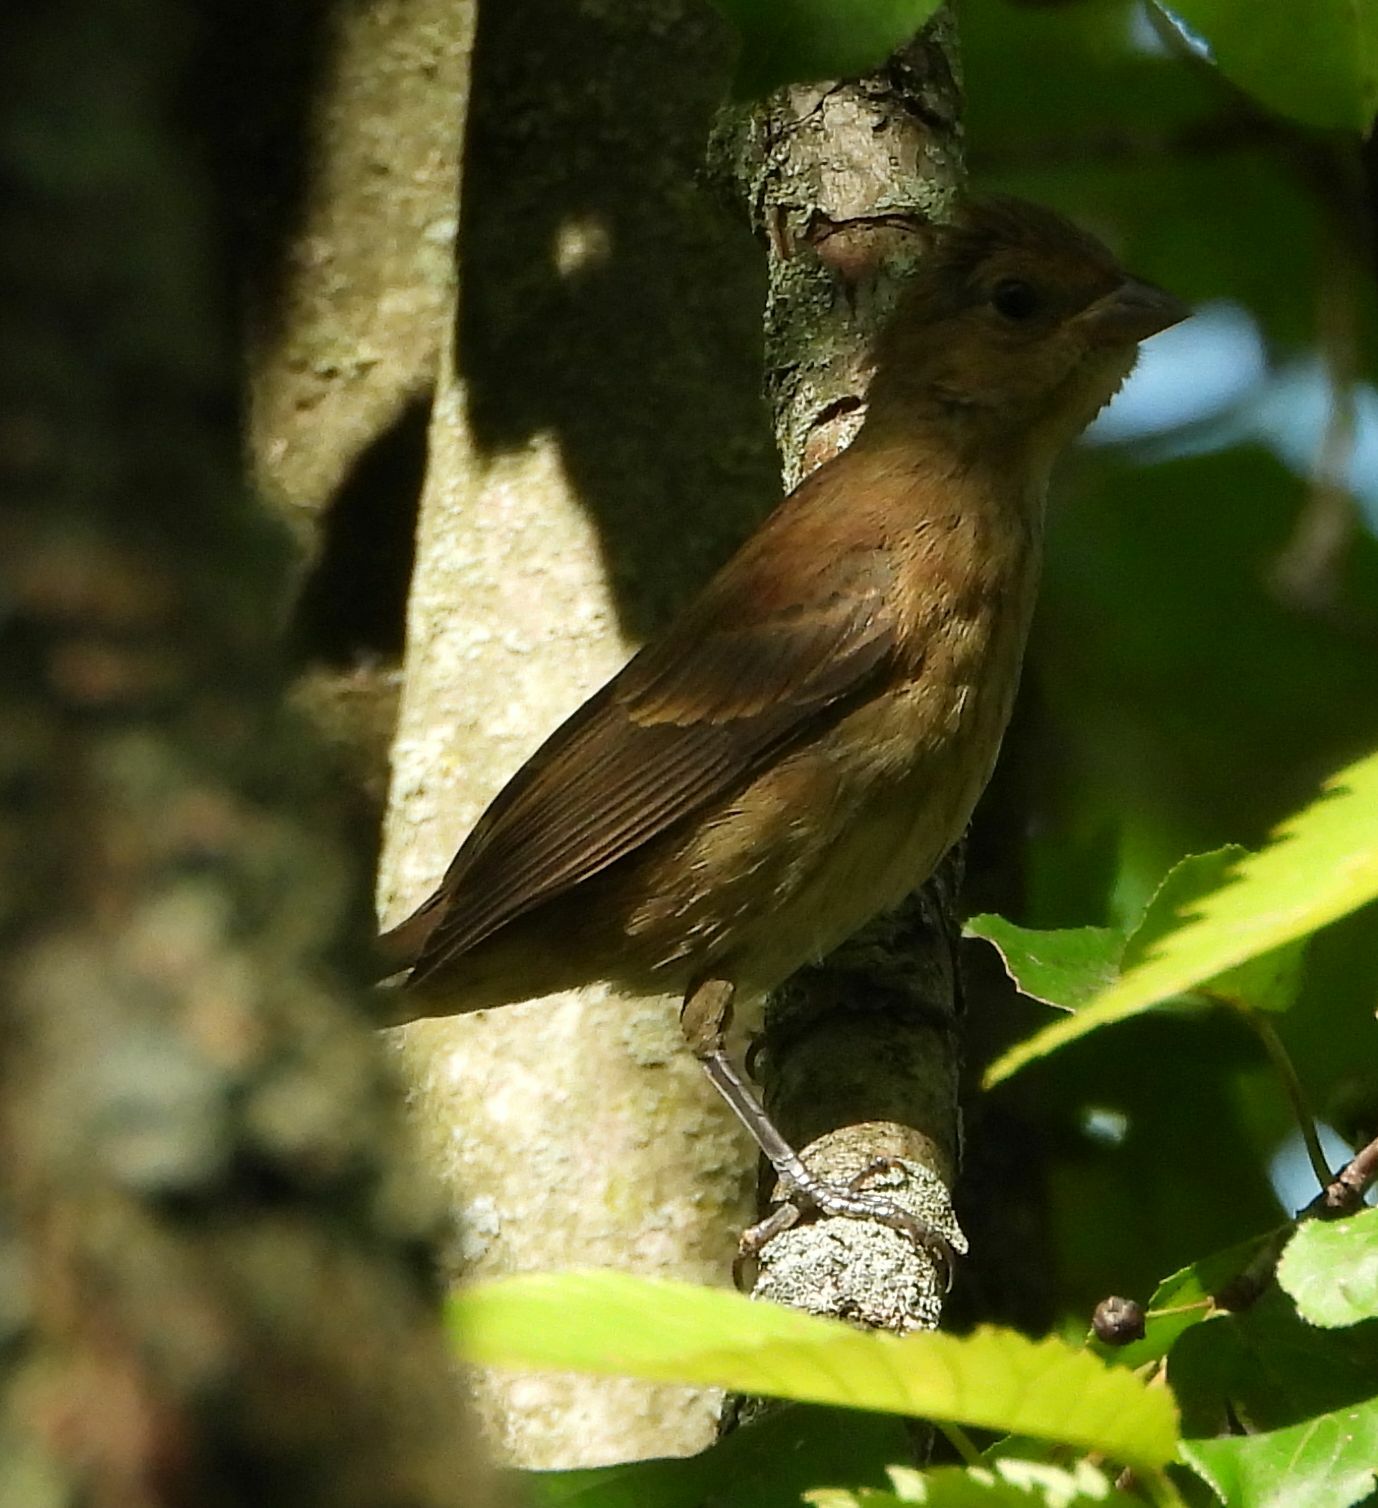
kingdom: Animalia
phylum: Chordata
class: Aves
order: Passeriformes
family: Cardinalidae
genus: Passerina
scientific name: Passerina cyanea
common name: Indigo bunting
